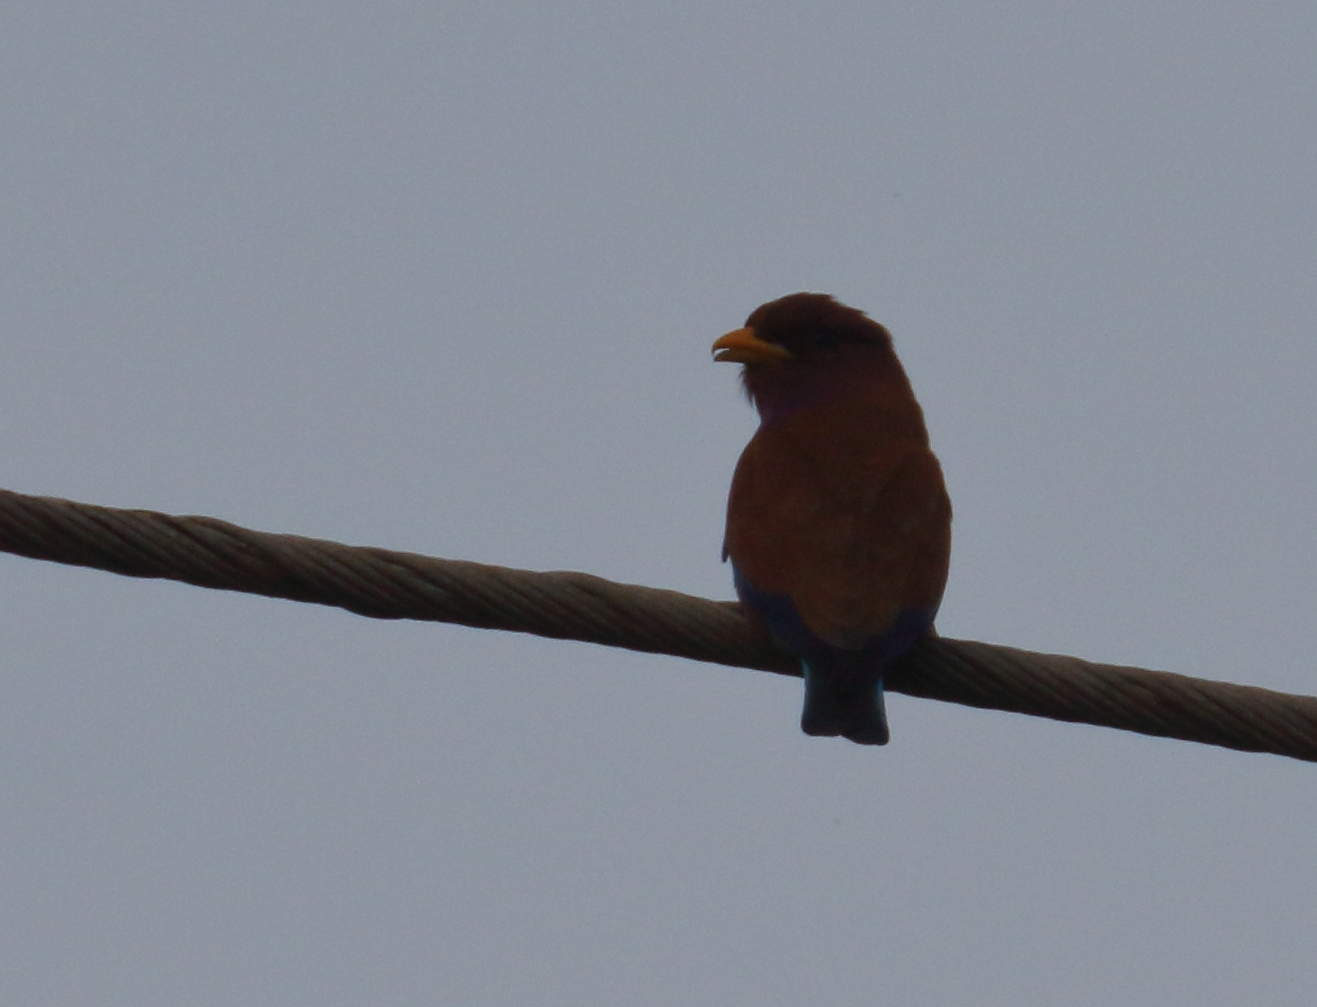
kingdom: Animalia
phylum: Chordata
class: Aves
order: Coraciiformes
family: Coraciidae
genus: Eurystomus
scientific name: Eurystomus glaucurus
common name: Broad-billed roller
